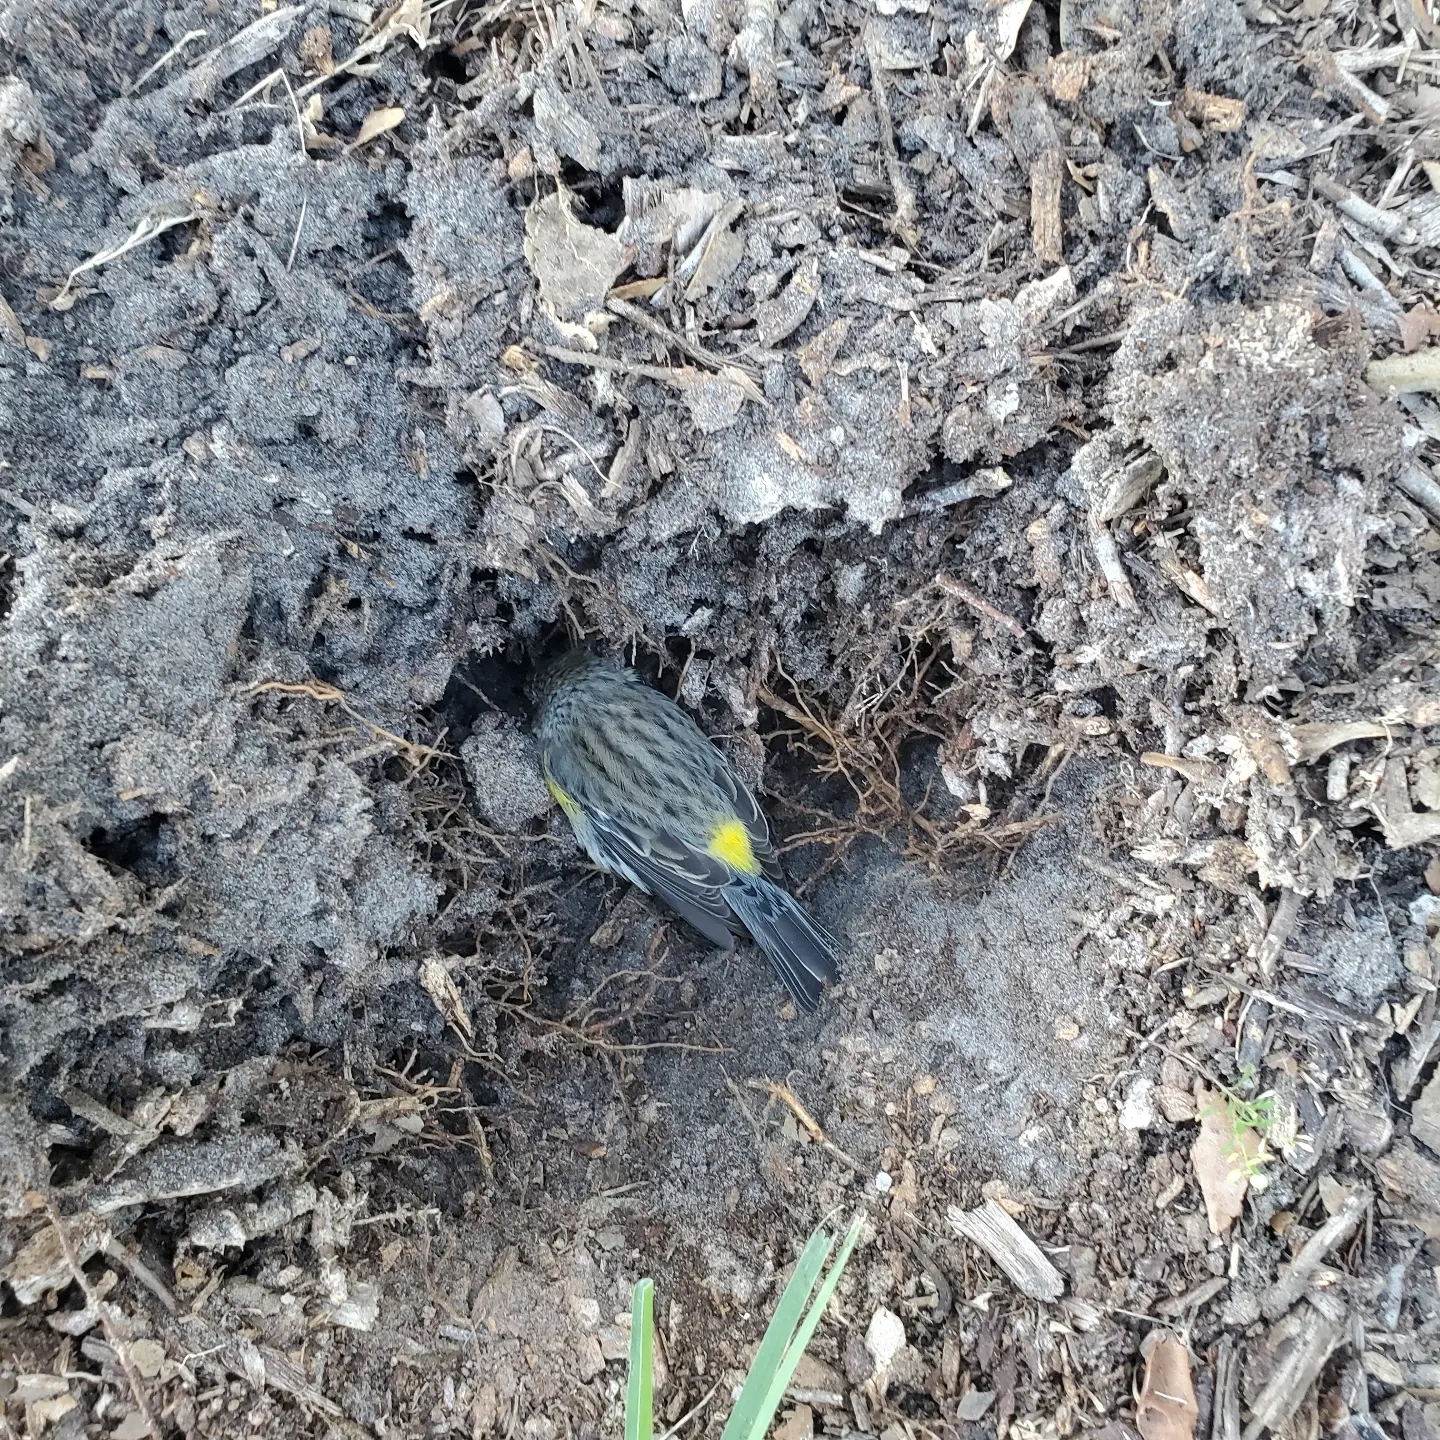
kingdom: Animalia
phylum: Chordata
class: Aves
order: Passeriformes
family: Parulidae
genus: Setophaga
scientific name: Setophaga coronata
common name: Myrtle warbler
